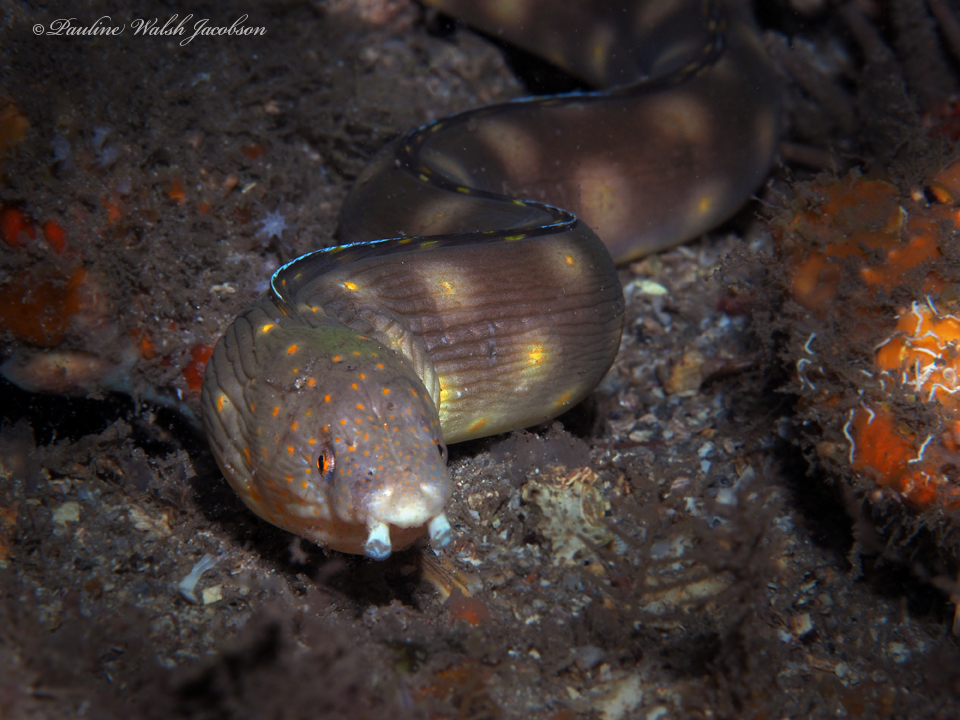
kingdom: Animalia
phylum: Chordata
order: Anguilliformes
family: Ophichthidae
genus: Myrichthys
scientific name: Myrichthys breviceps
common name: Sharptail eel
